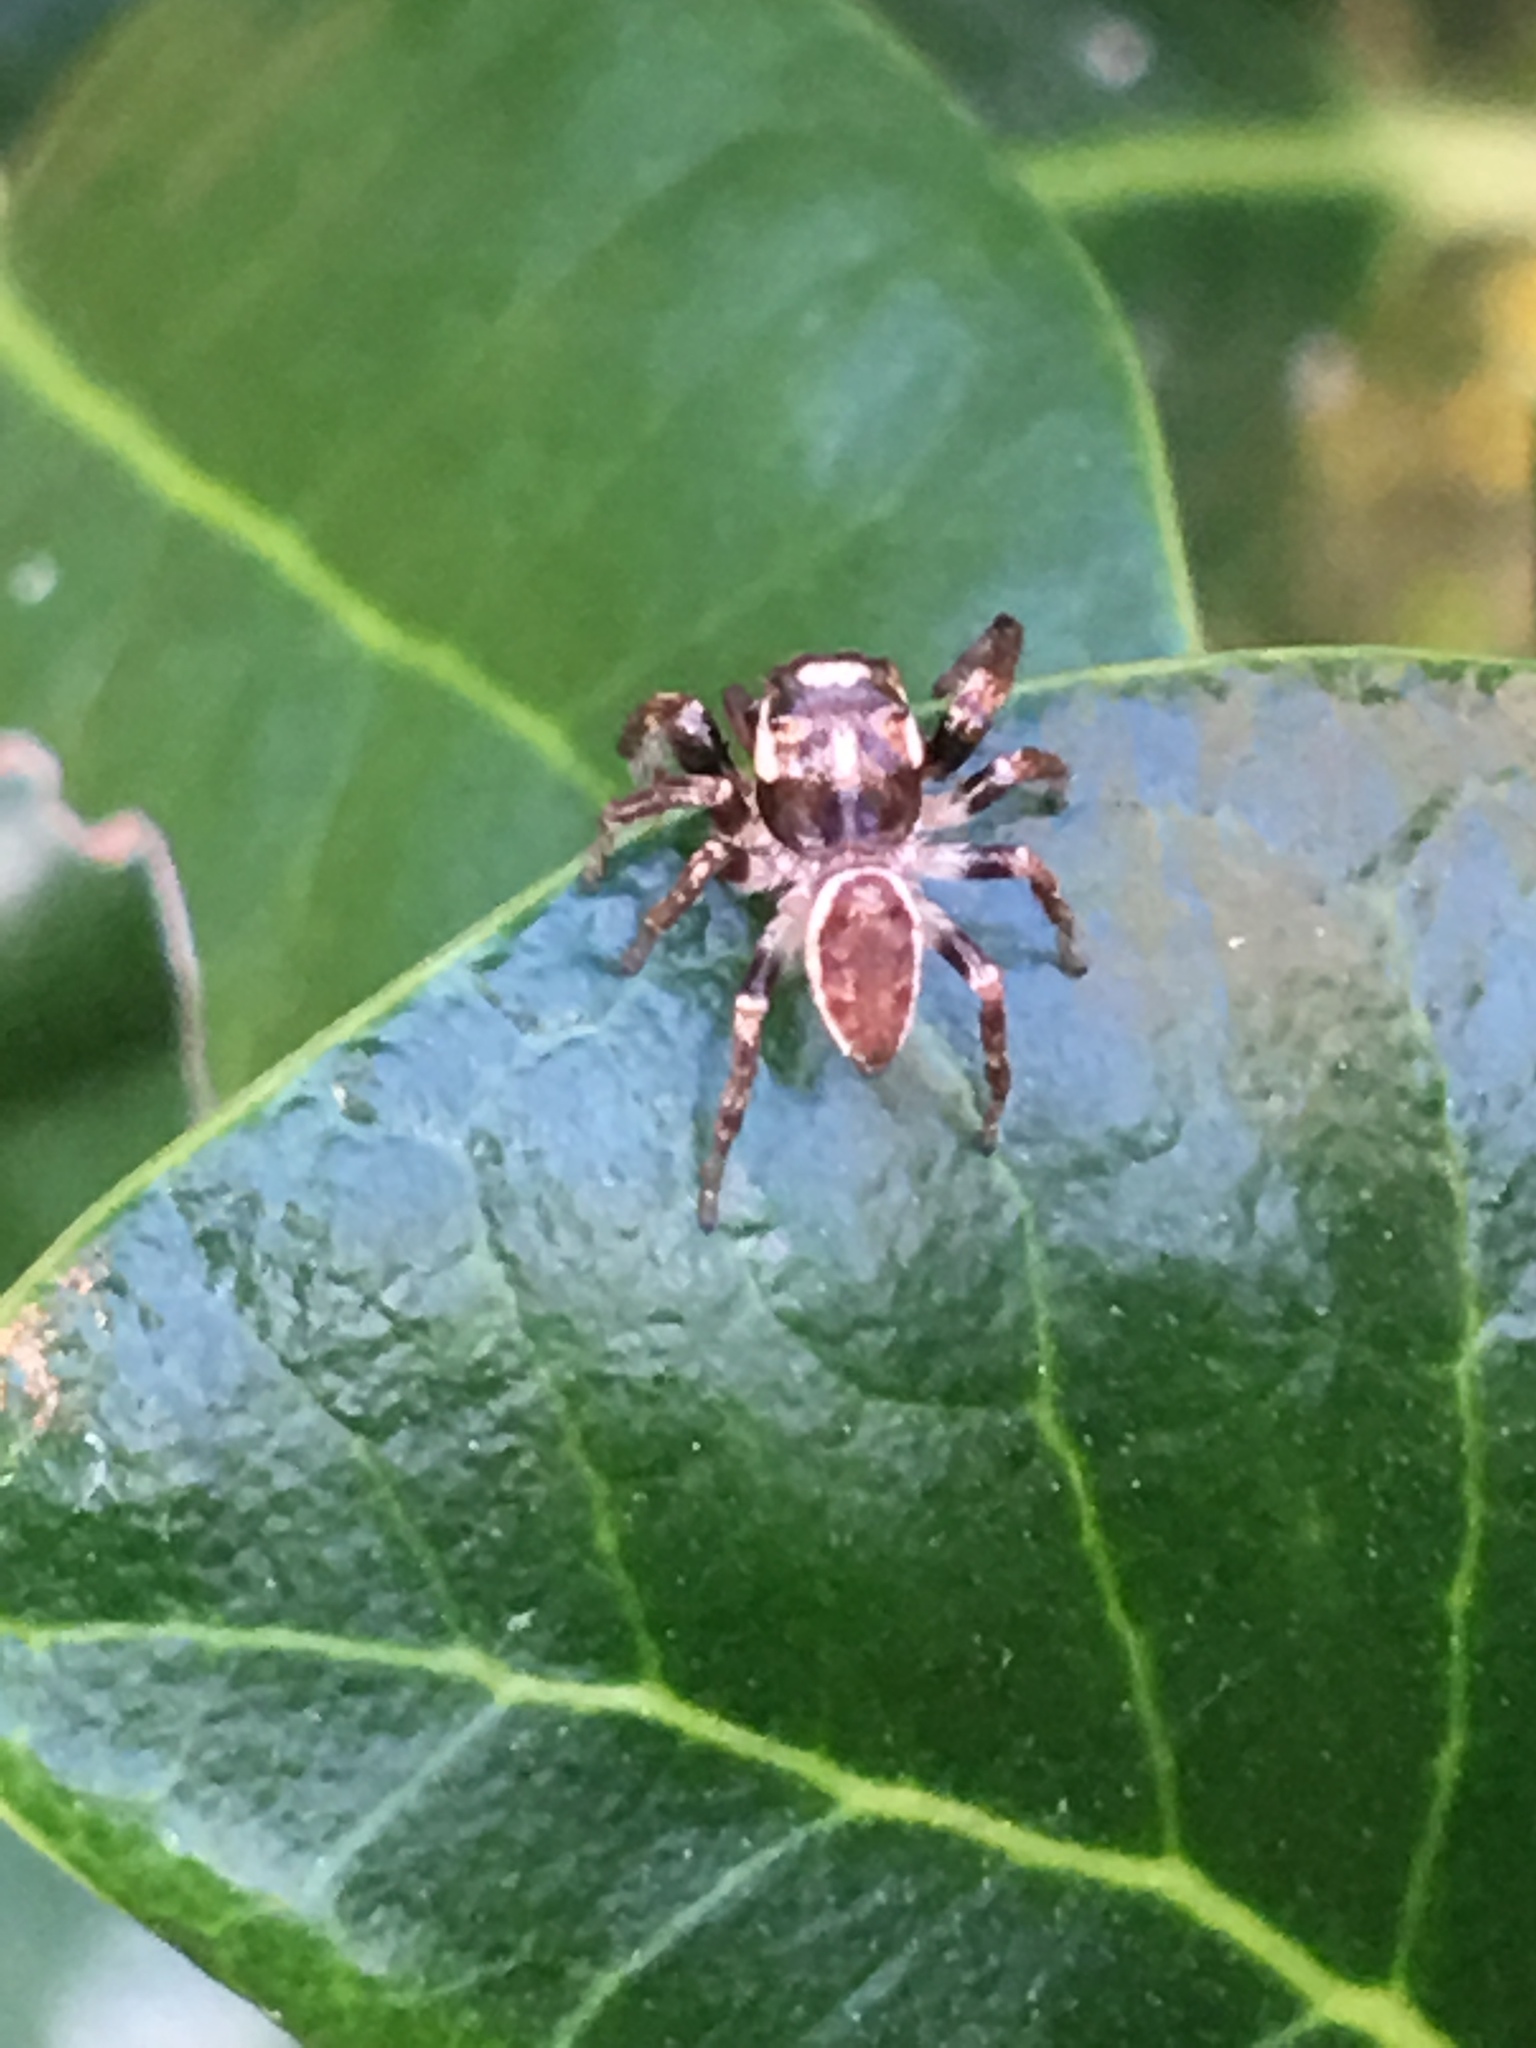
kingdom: Animalia
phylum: Arthropoda
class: Arachnida
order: Araneae
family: Salticidae
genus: Eris
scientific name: Eris militaris
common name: Bronze jumper
